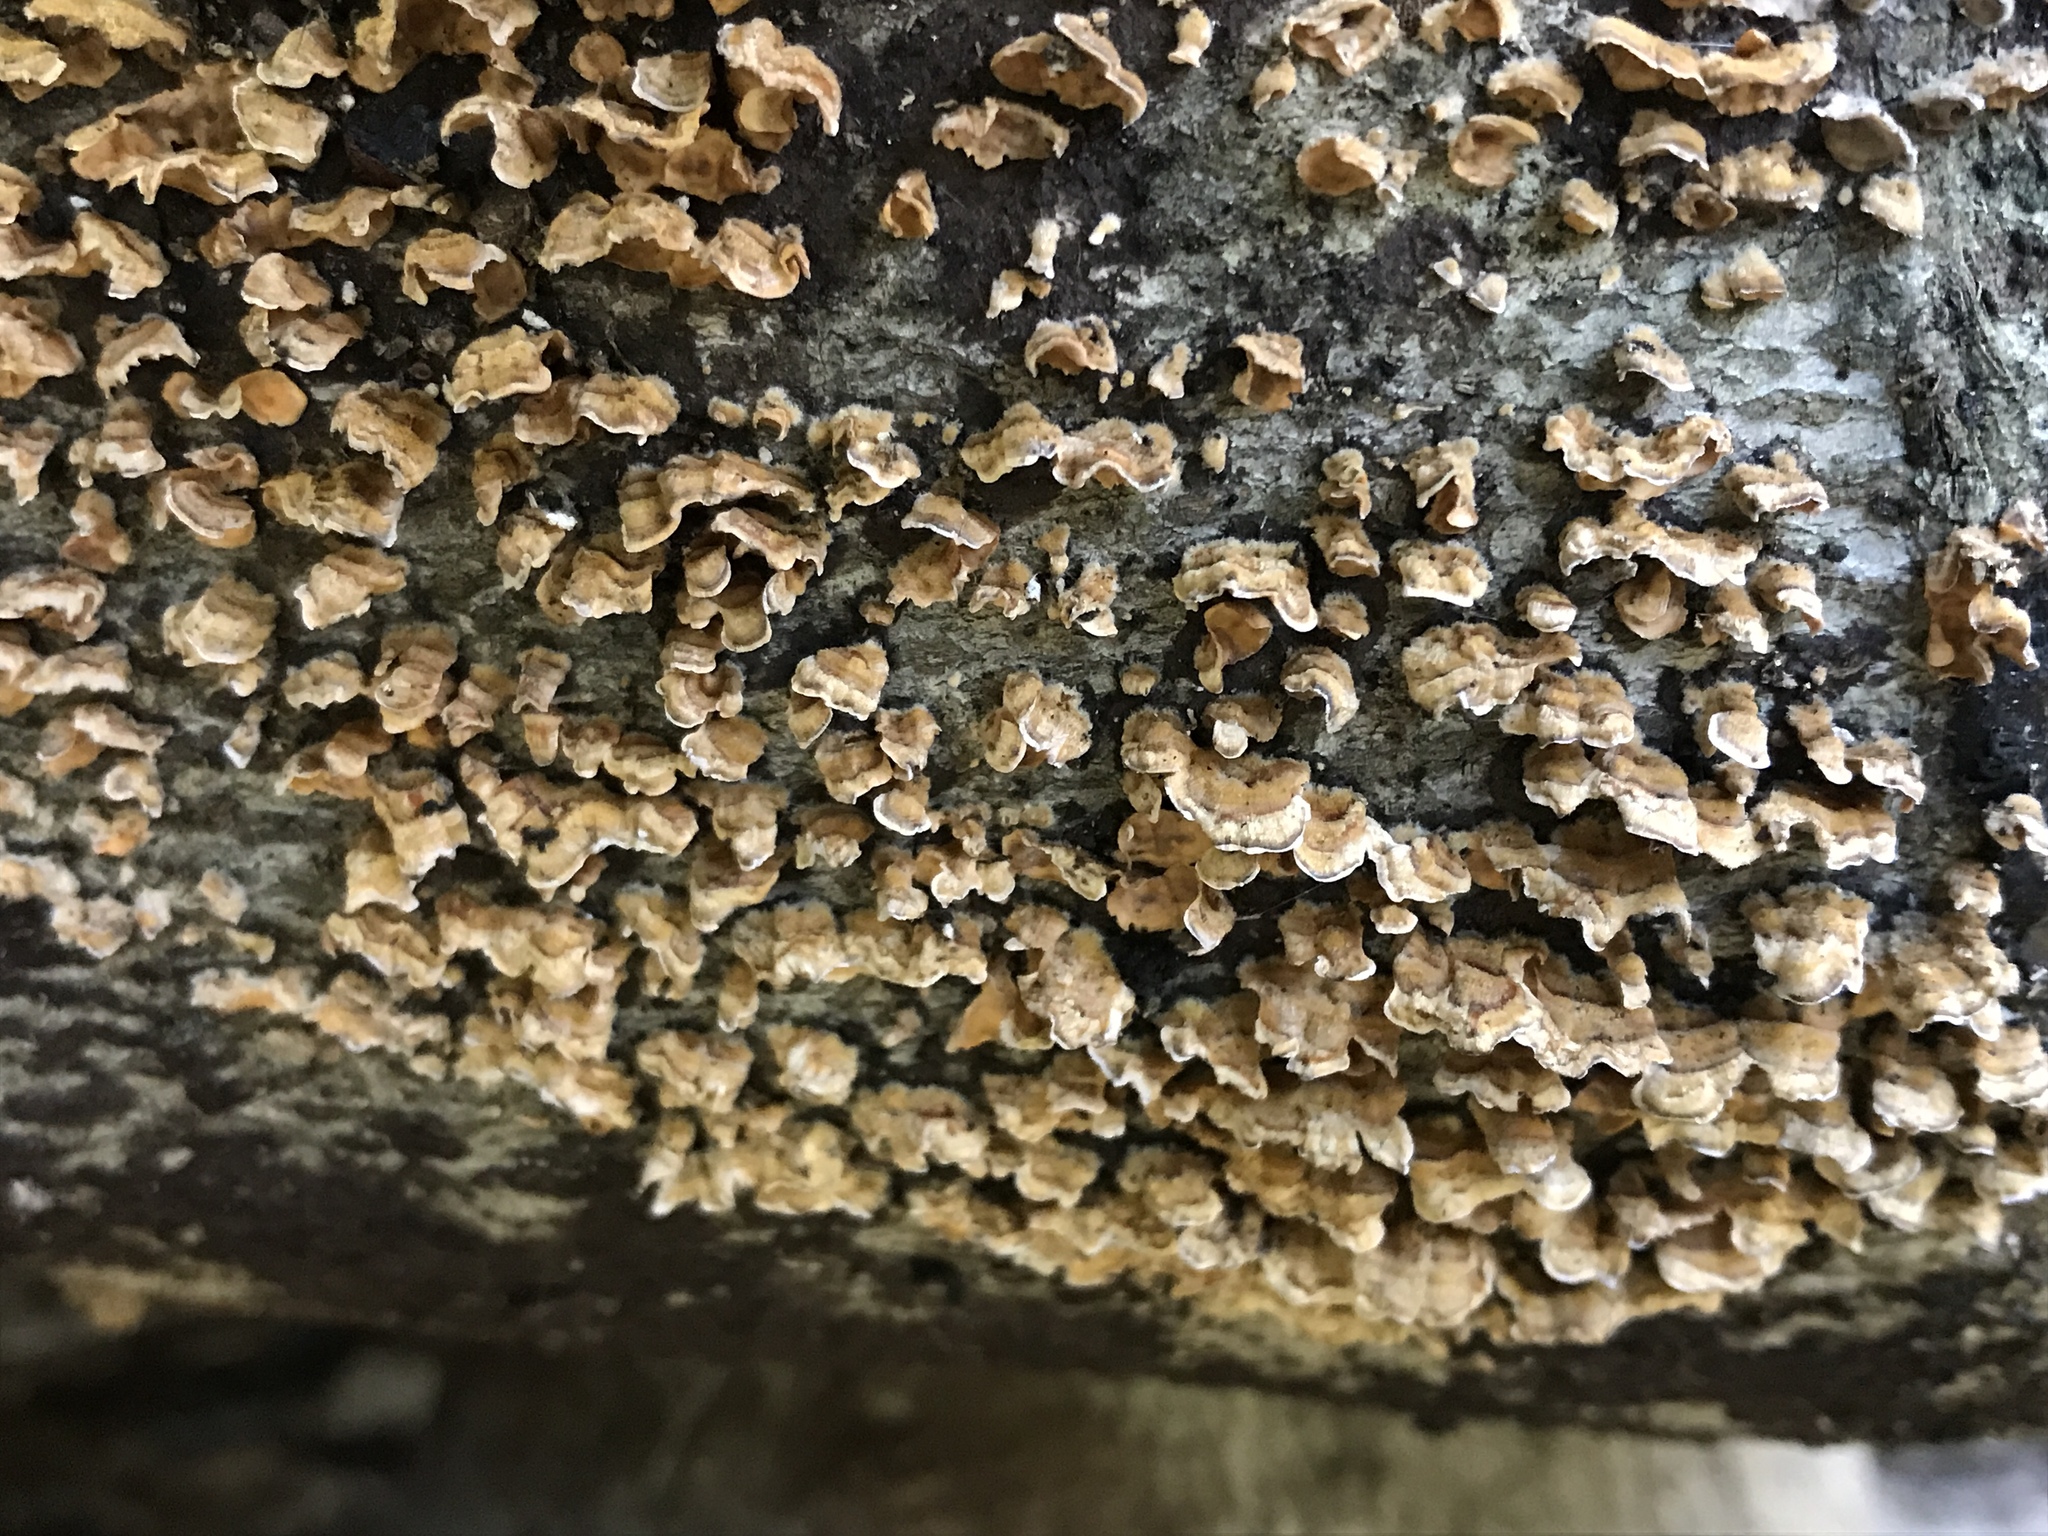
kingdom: Fungi
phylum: Basidiomycota
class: Agaricomycetes
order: Russulales
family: Stereaceae
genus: Stereum
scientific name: Stereum complicatum
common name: Crowded parchment
